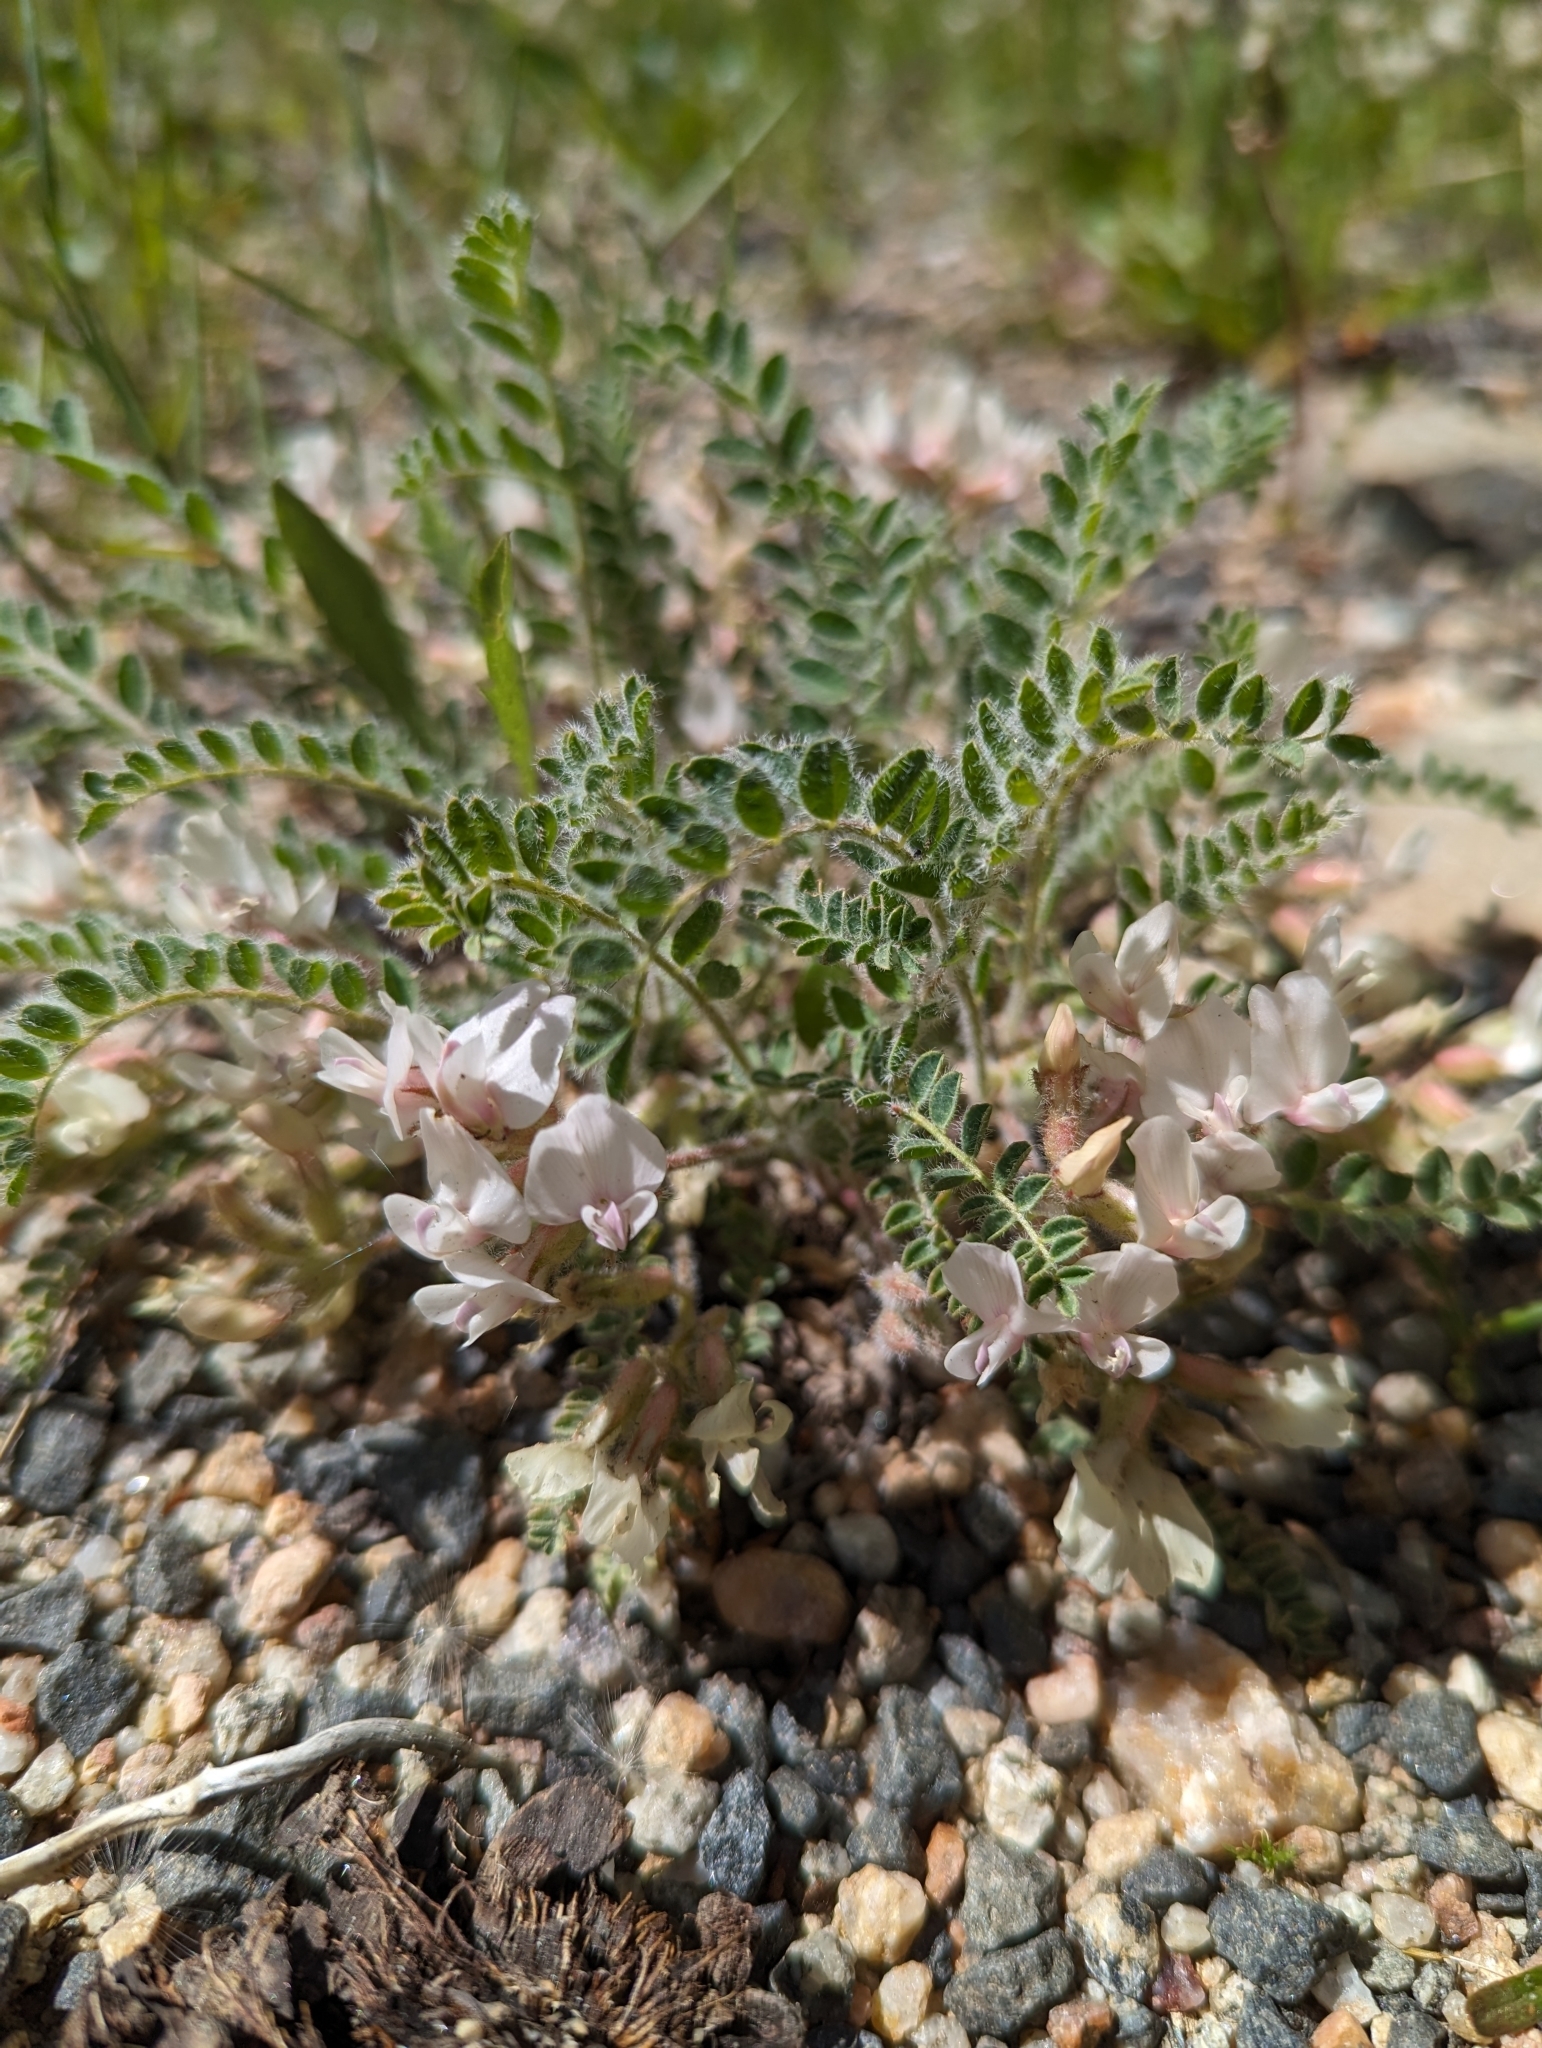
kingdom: Plantae
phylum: Tracheophyta
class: Magnoliopsida
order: Fabales
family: Fabaceae
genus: Astragalus
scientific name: Astragalus parryi
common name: Parry milk-vetch
